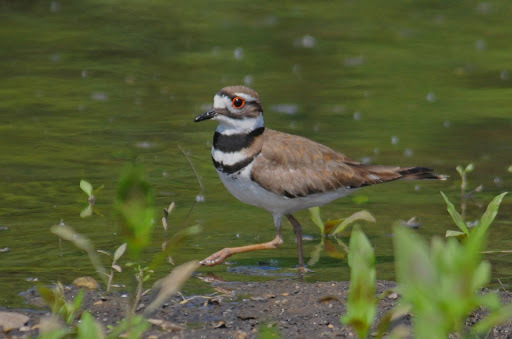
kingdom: Animalia
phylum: Chordata
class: Aves
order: Charadriiformes
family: Charadriidae
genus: Charadrius
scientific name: Charadrius vociferus
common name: Killdeer
